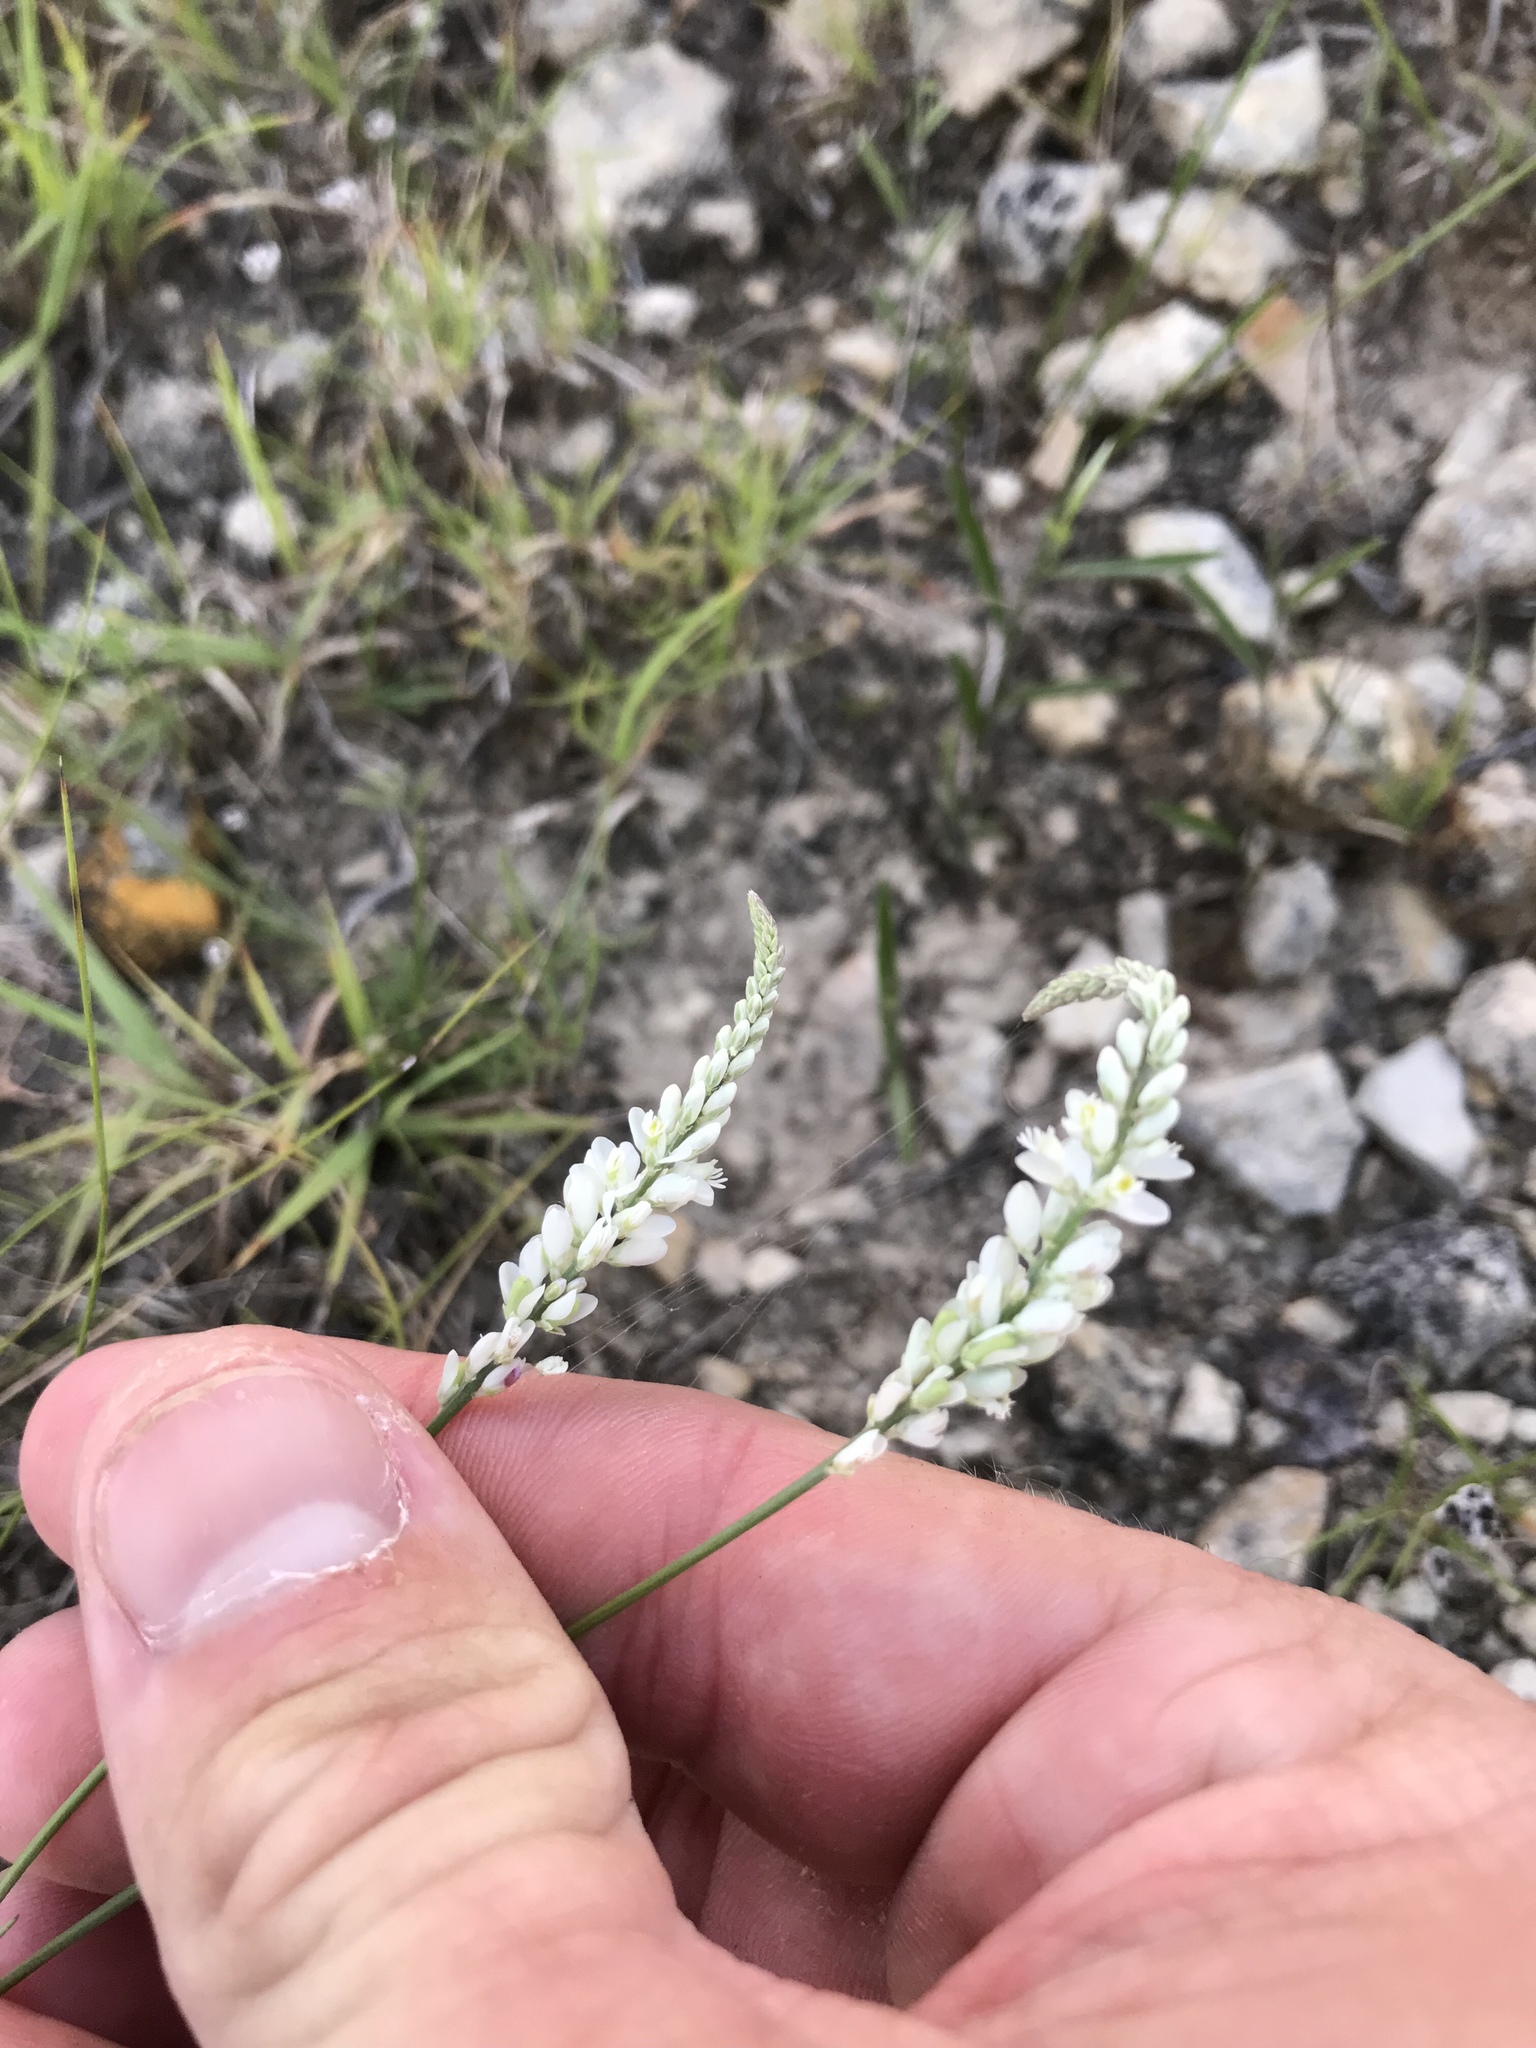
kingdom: Plantae
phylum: Tracheophyta
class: Magnoliopsida
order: Fabales
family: Polygalaceae
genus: Polygala
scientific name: Polygala alba
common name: White milkwort
